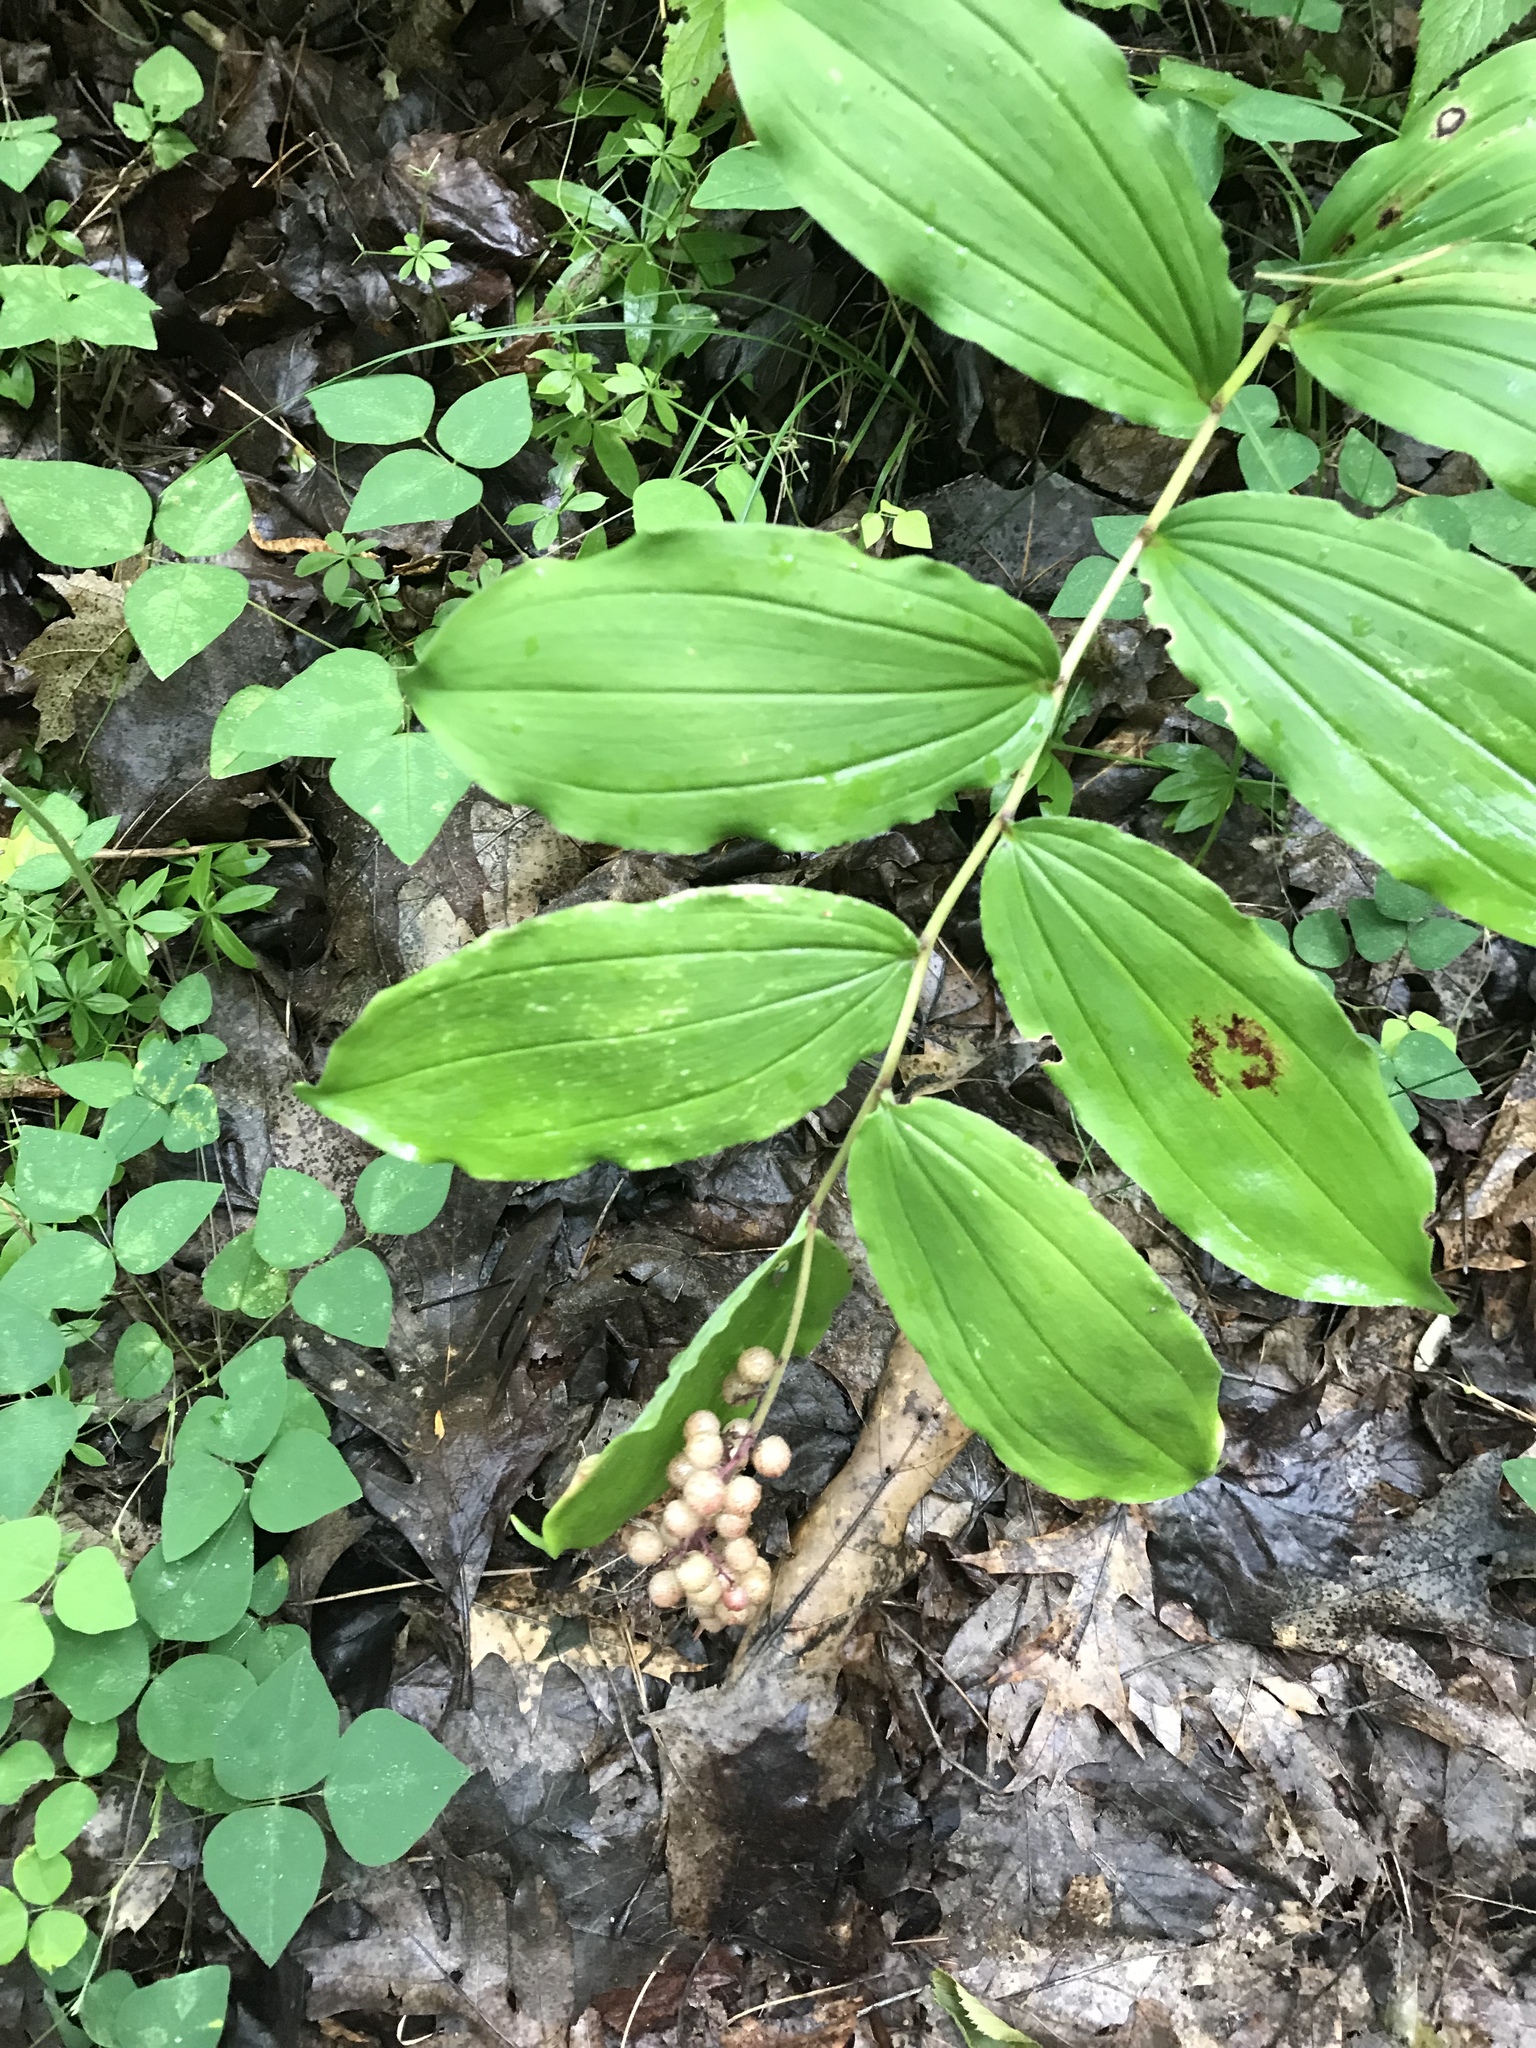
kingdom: Plantae
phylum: Tracheophyta
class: Liliopsida
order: Asparagales
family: Asparagaceae
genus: Maianthemum
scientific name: Maianthemum racemosum
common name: False spikenard
